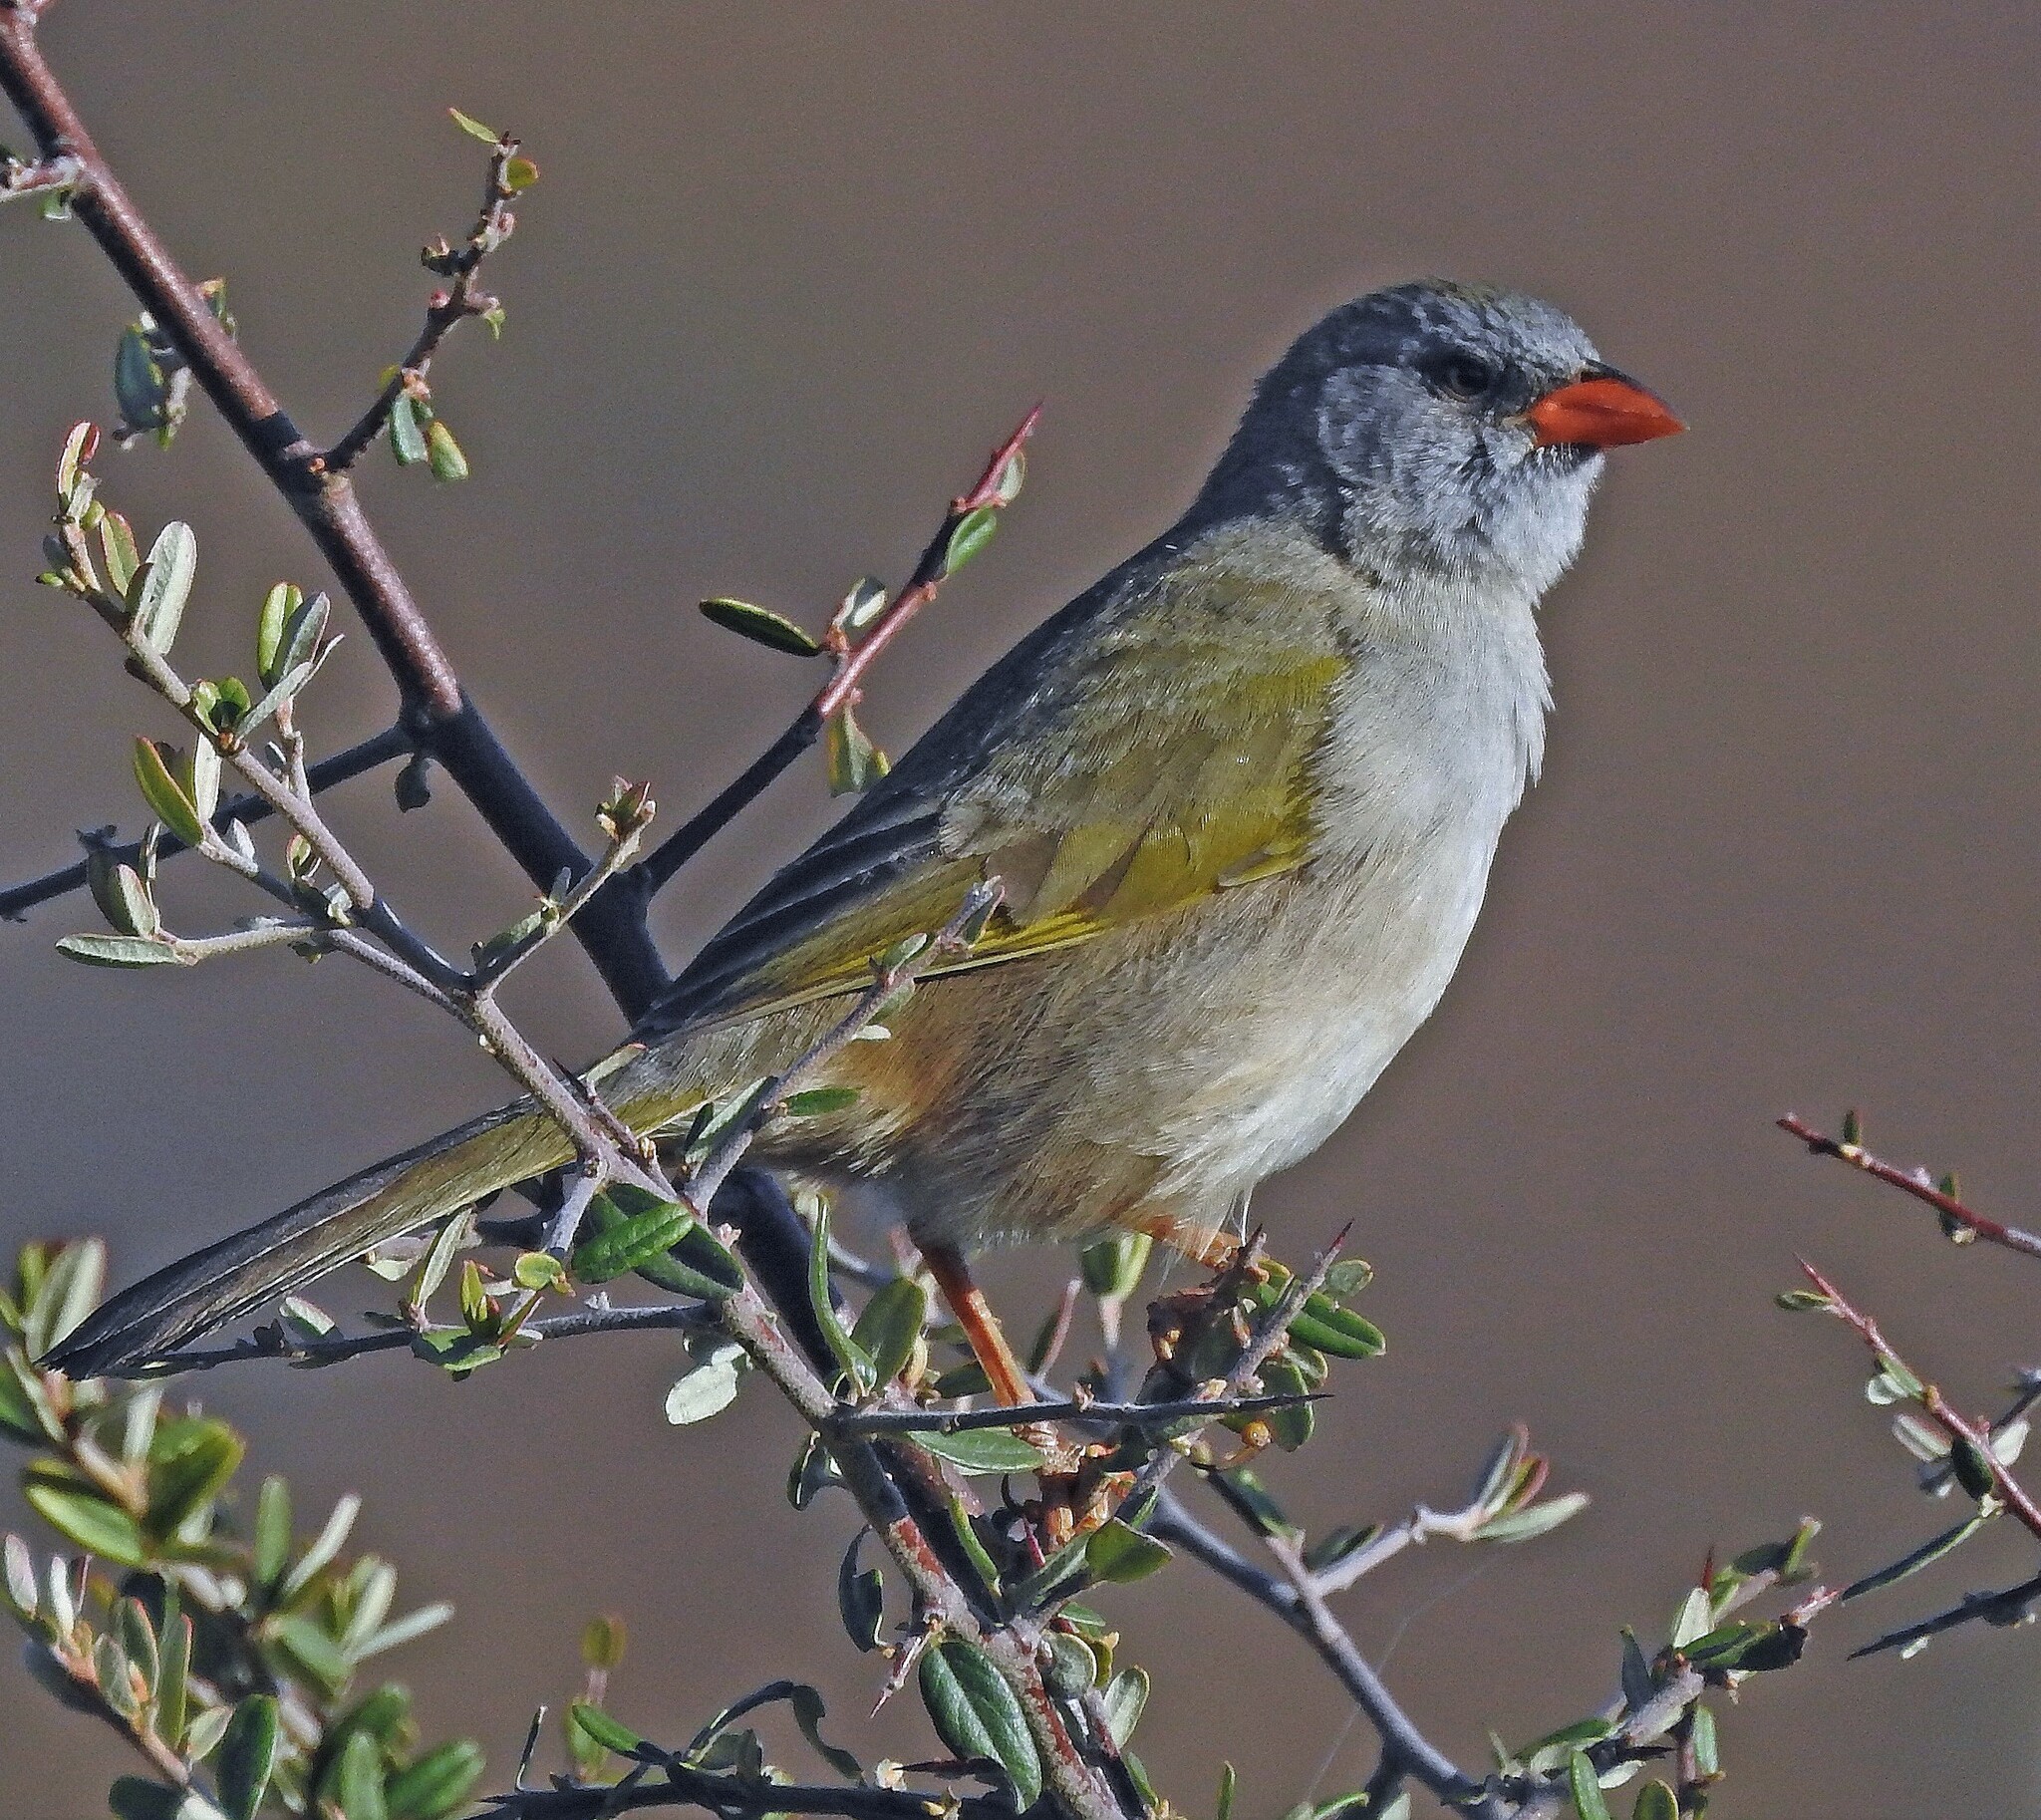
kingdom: Animalia
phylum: Chordata
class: Aves
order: Passeriformes
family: Thraupidae
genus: Embernagra
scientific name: Embernagra platensis
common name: Pampa finch
